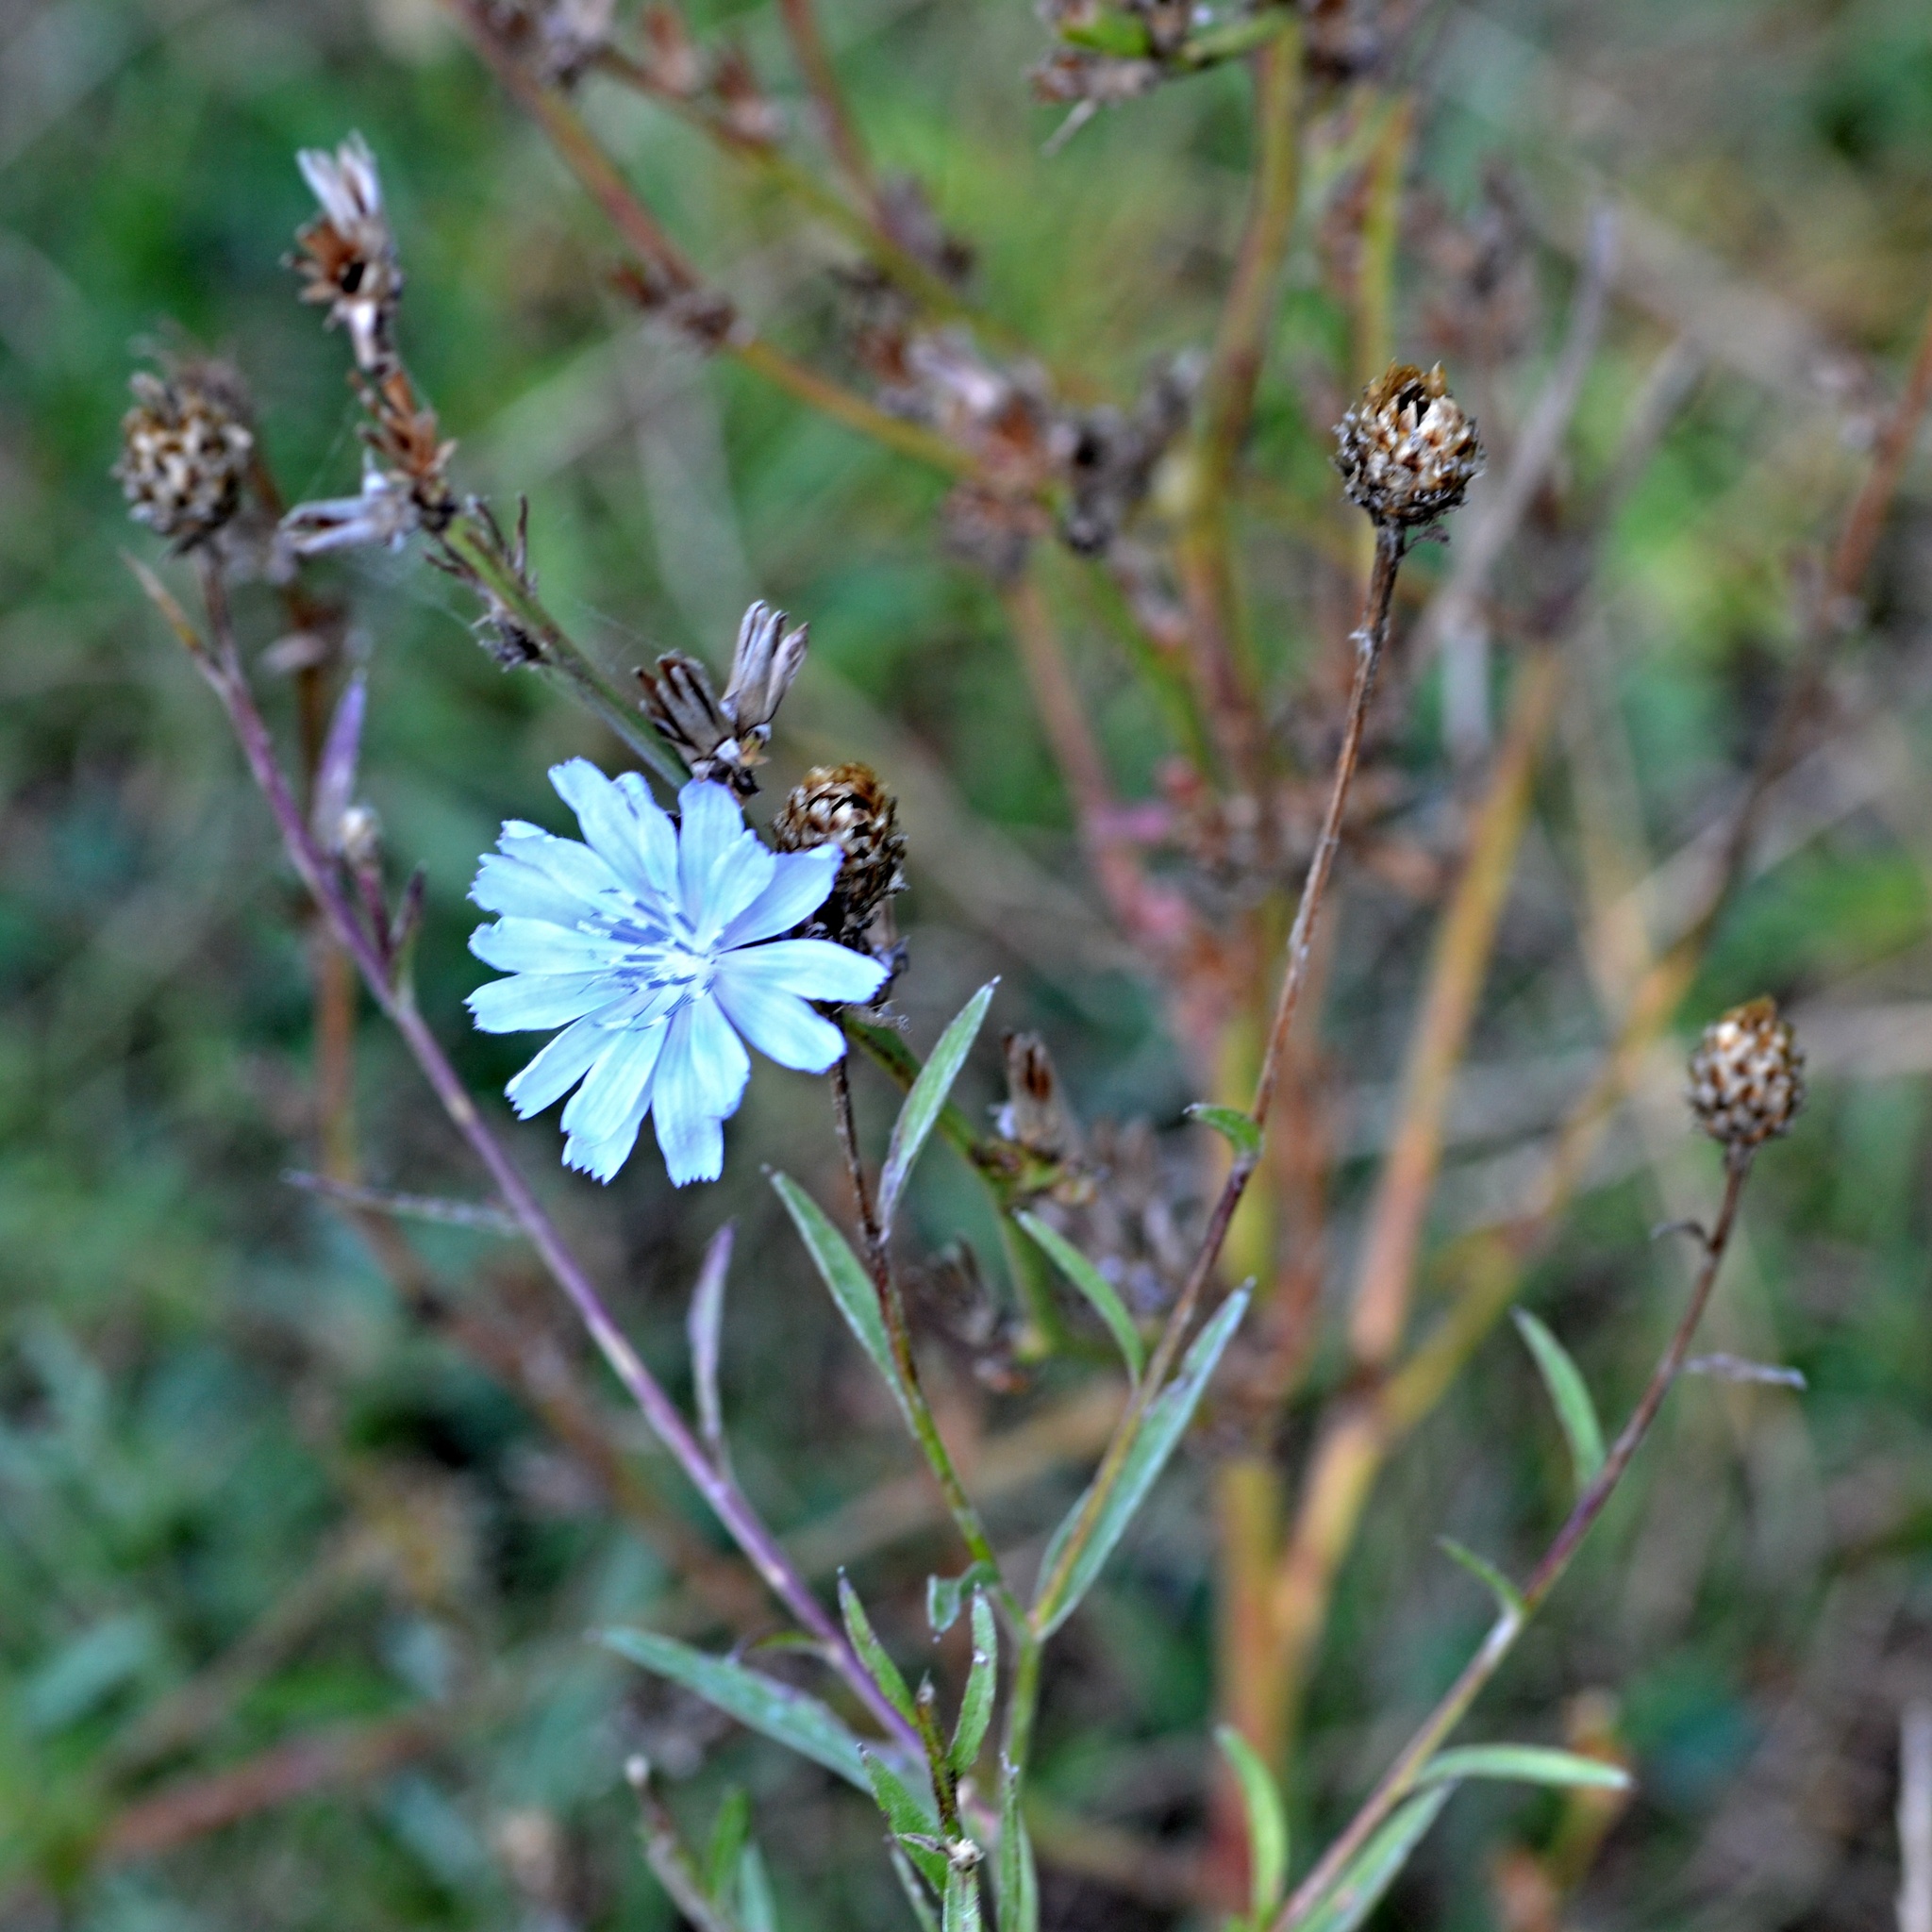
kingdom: Plantae
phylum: Tracheophyta
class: Magnoliopsida
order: Asterales
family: Asteraceae
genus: Cichorium
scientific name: Cichorium intybus
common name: Chicory
